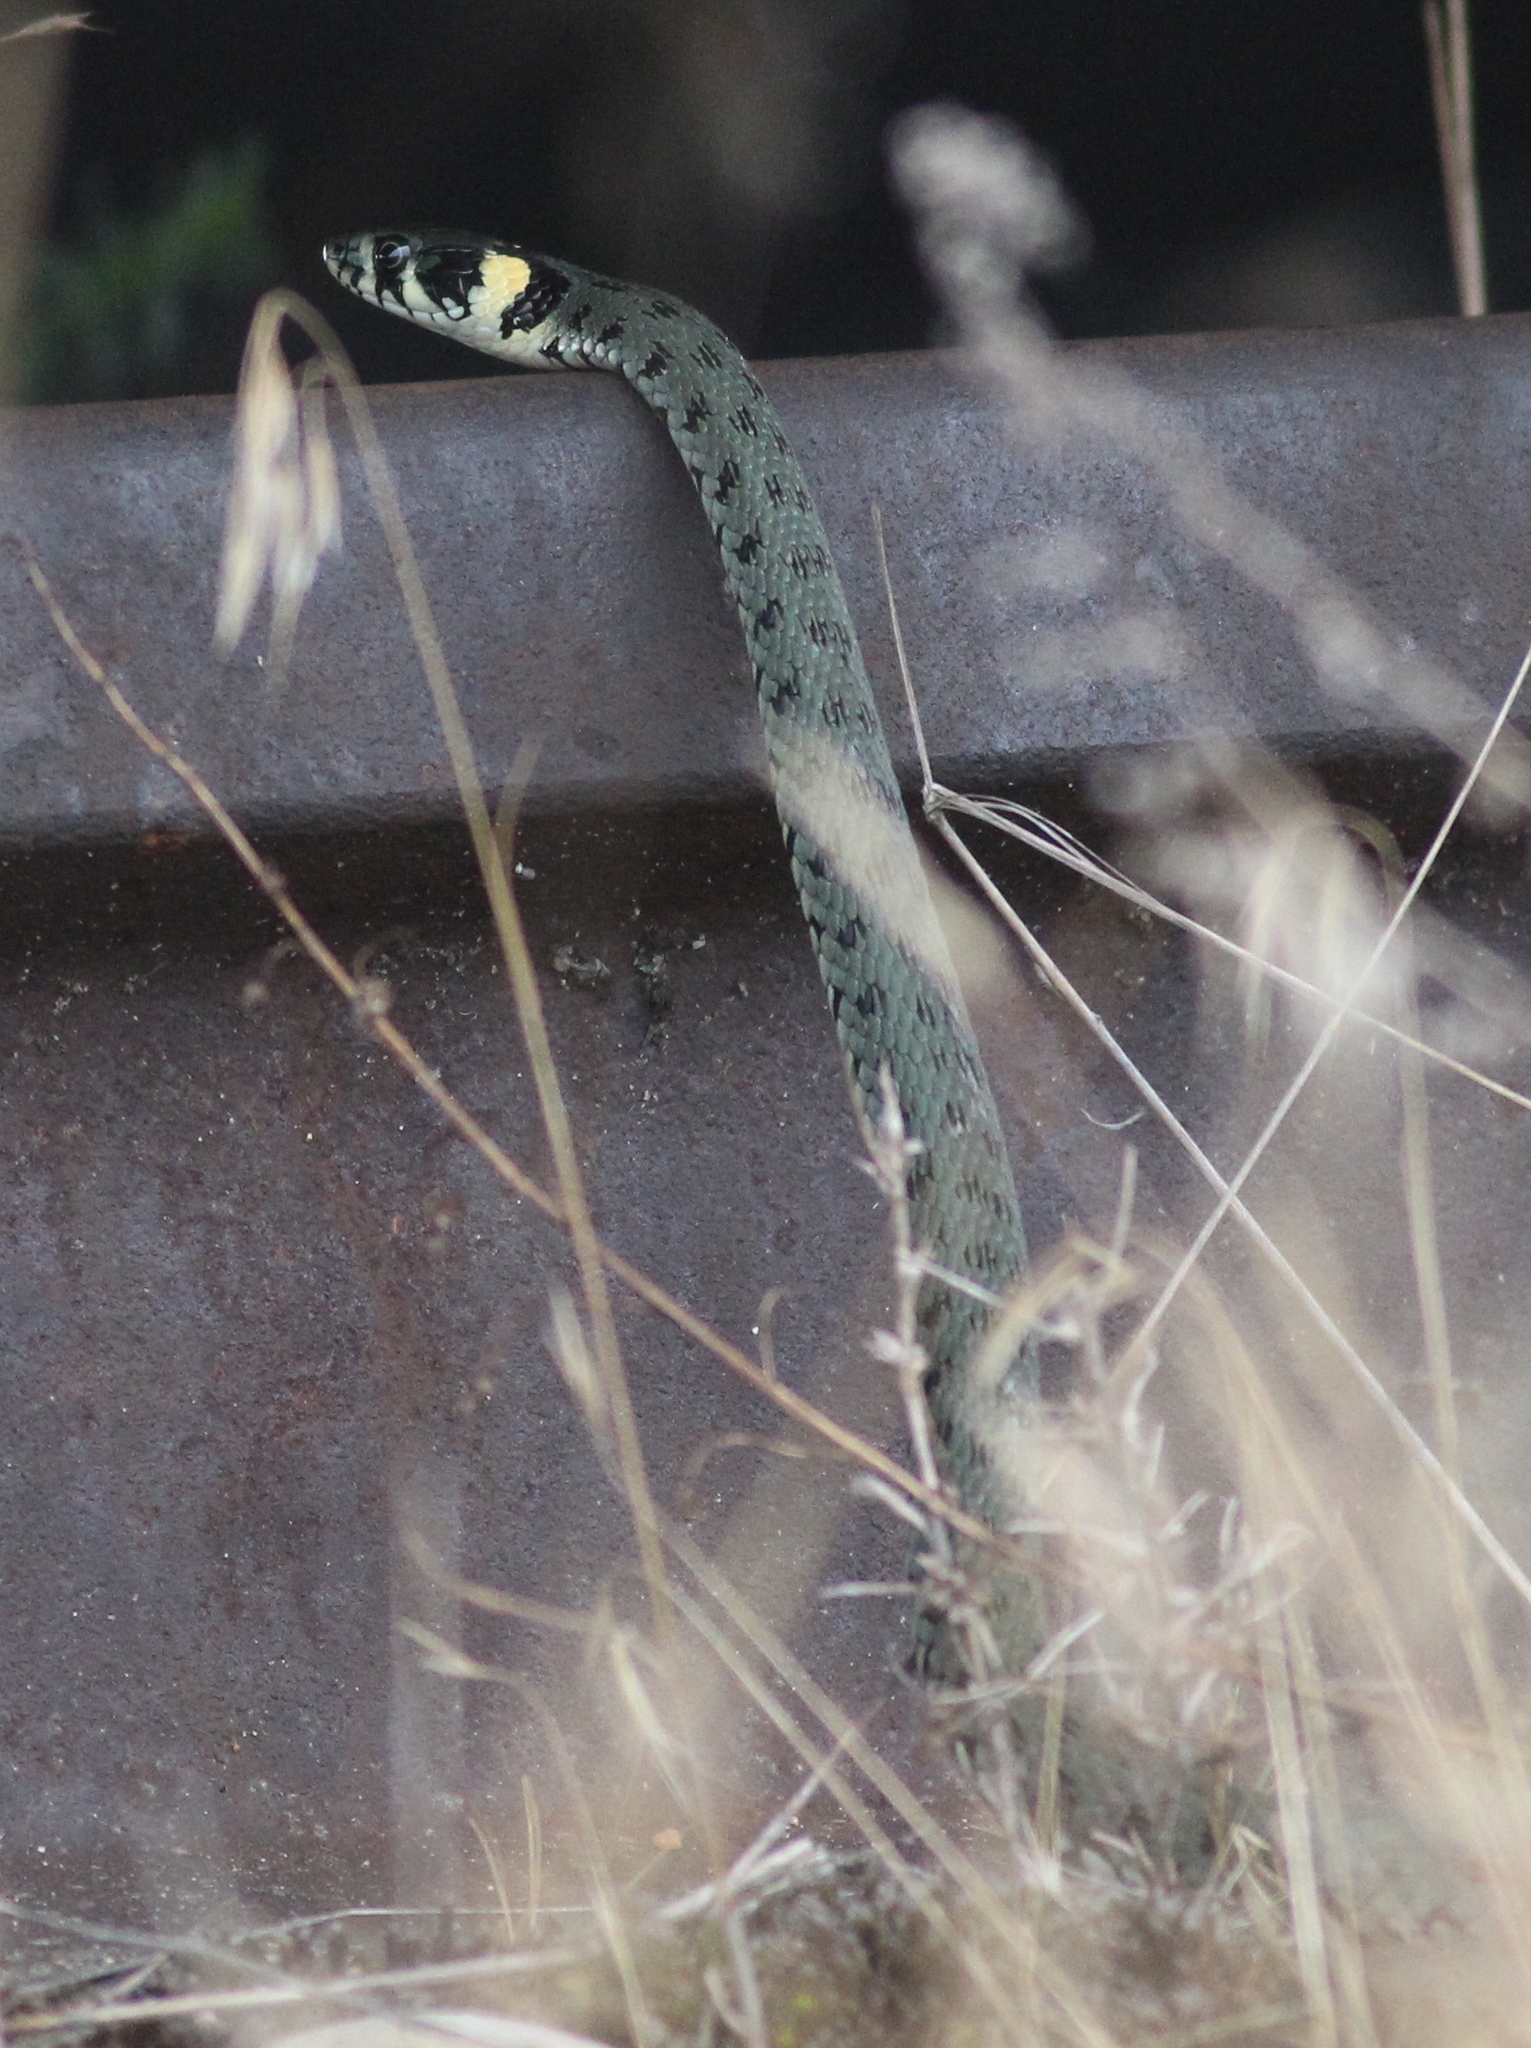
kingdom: Animalia
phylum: Chordata
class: Squamata
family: Colubridae
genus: Natrix
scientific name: Natrix natrix
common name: Grass snake
